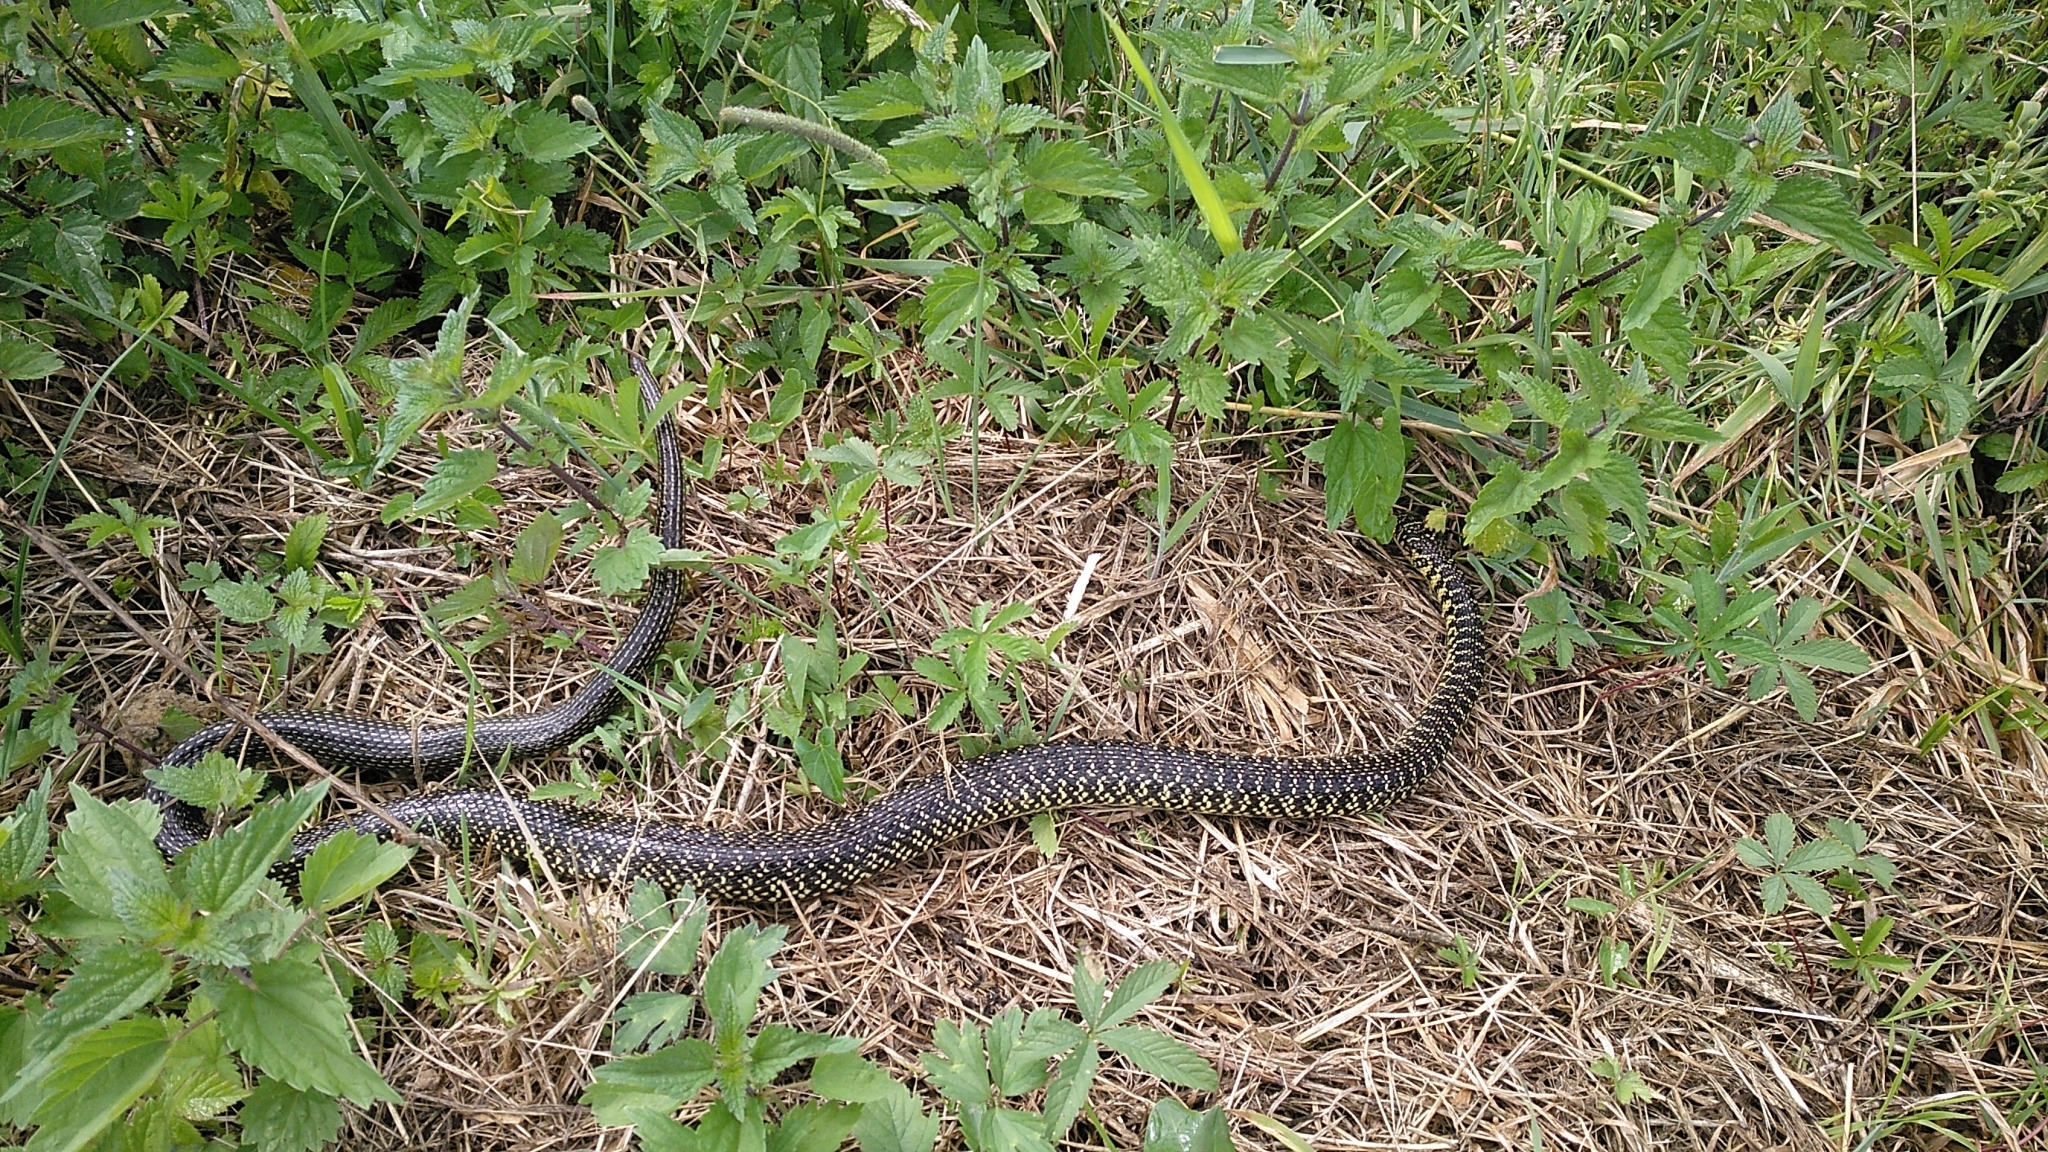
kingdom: Animalia
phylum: Chordata
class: Squamata
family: Colubridae
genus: Hierophis
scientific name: Hierophis viridiflavus
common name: Green whip snake
